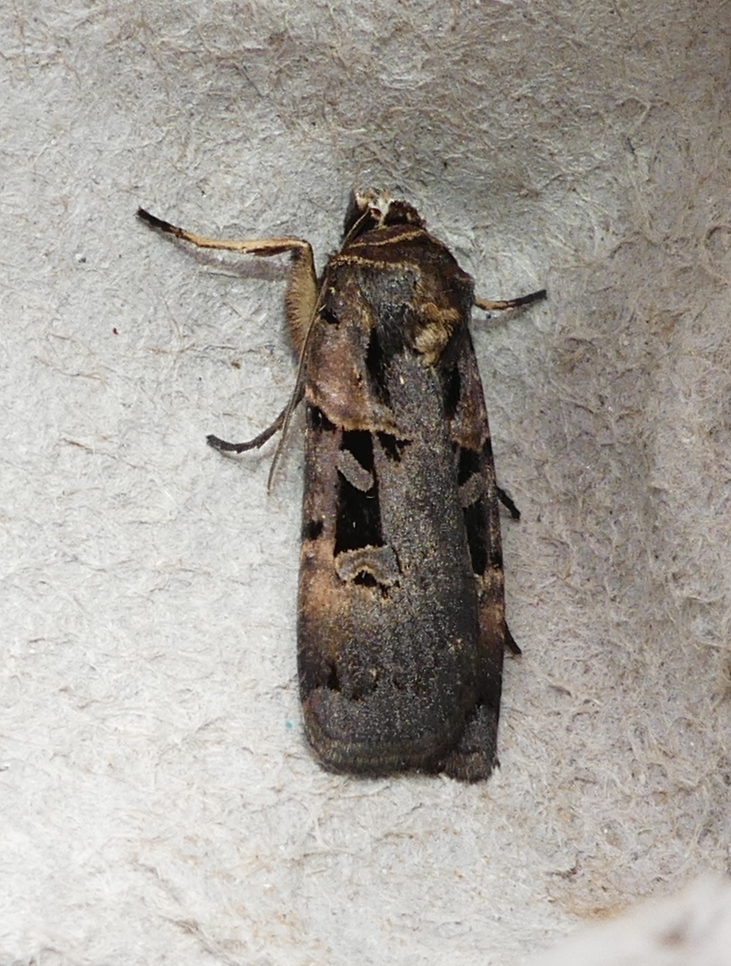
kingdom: Animalia
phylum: Arthropoda
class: Insecta
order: Lepidoptera
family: Noctuidae
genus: Pseudohermonassa
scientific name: Pseudohermonassa bicarnea
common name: Pink spotted dart
